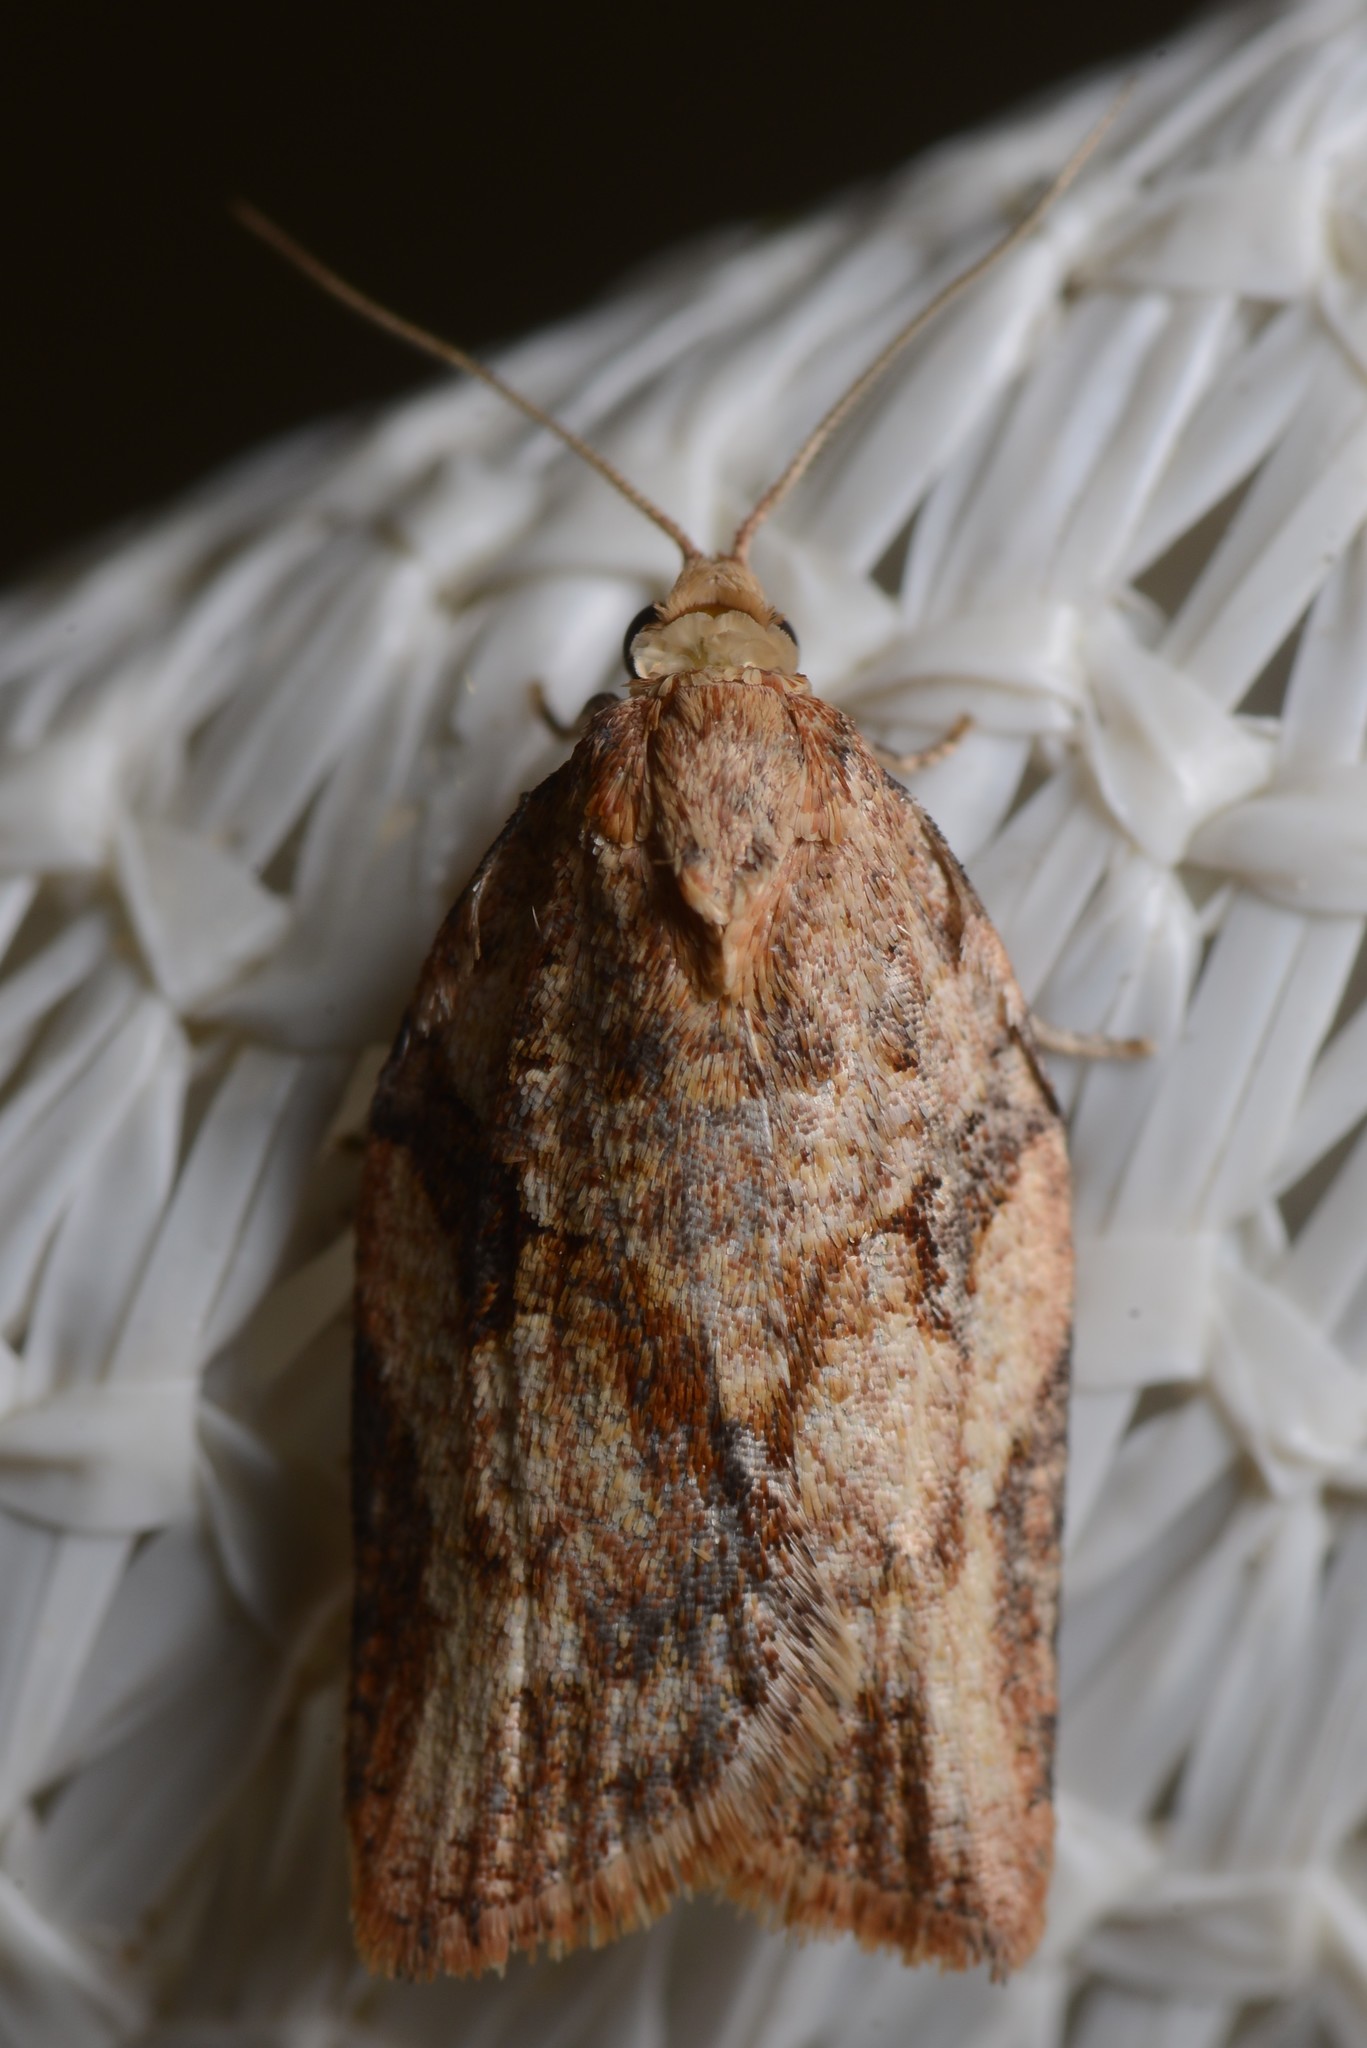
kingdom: Animalia
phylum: Arthropoda
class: Insecta
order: Lepidoptera
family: Tortricidae
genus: Epiphyas
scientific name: Epiphyas postvittana
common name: Light brown apple moth
